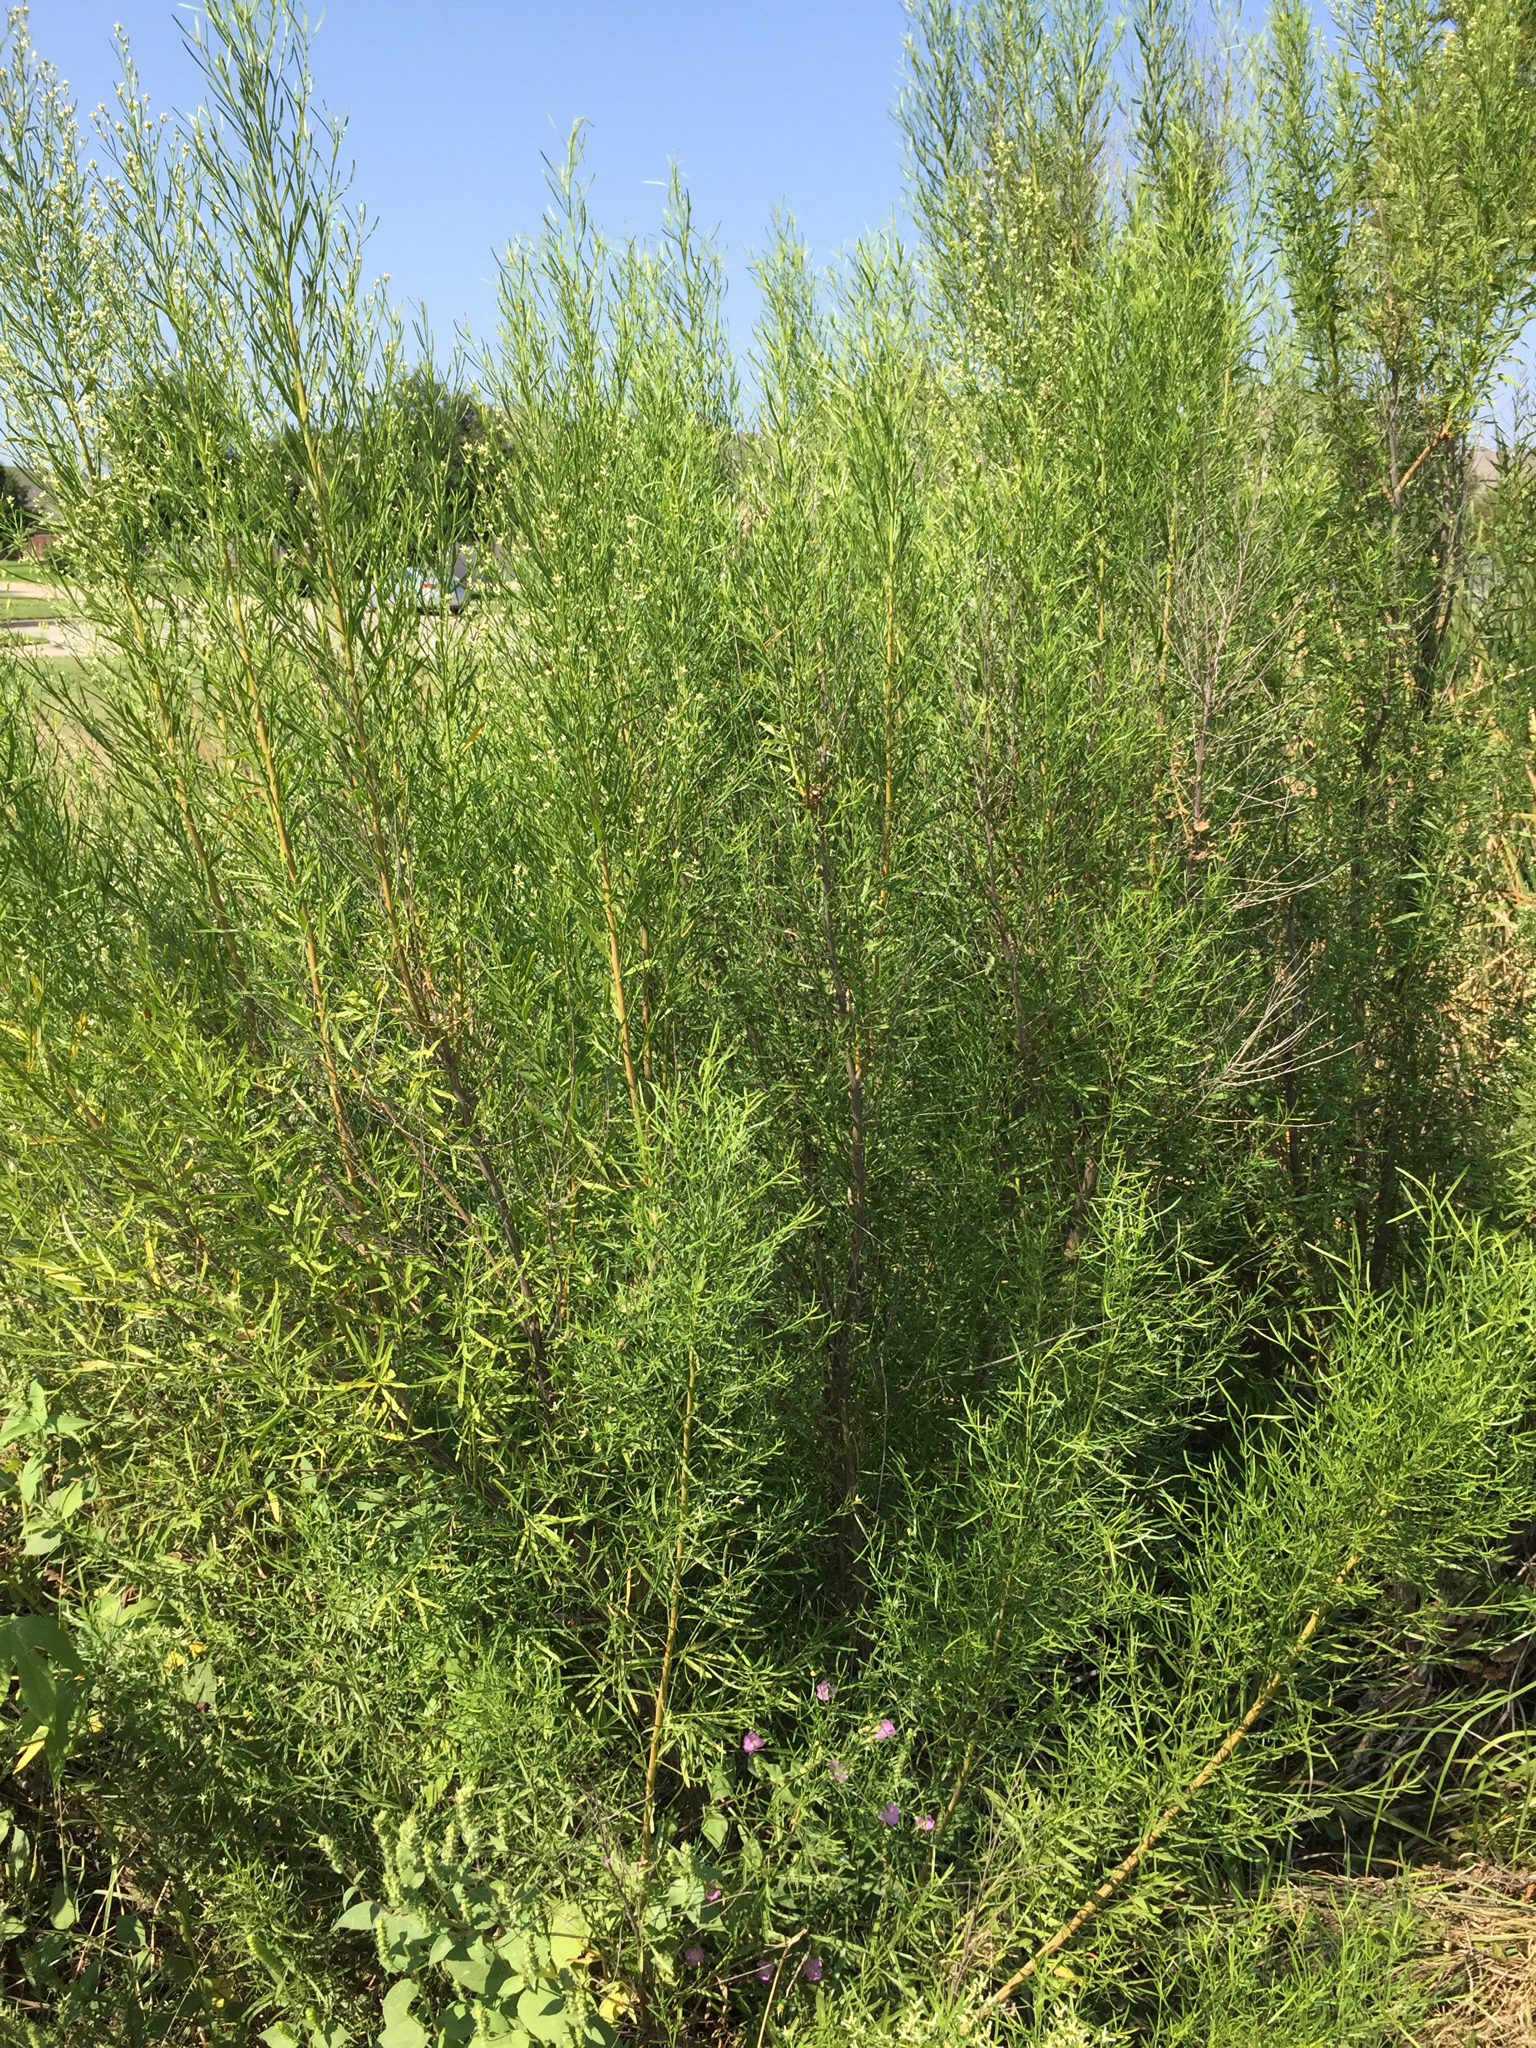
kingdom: Plantae
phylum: Tracheophyta
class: Magnoliopsida
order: Asterales
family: Asteraceae
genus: Baccharis
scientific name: Baccharis neglecta
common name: Roosevelt-weed
